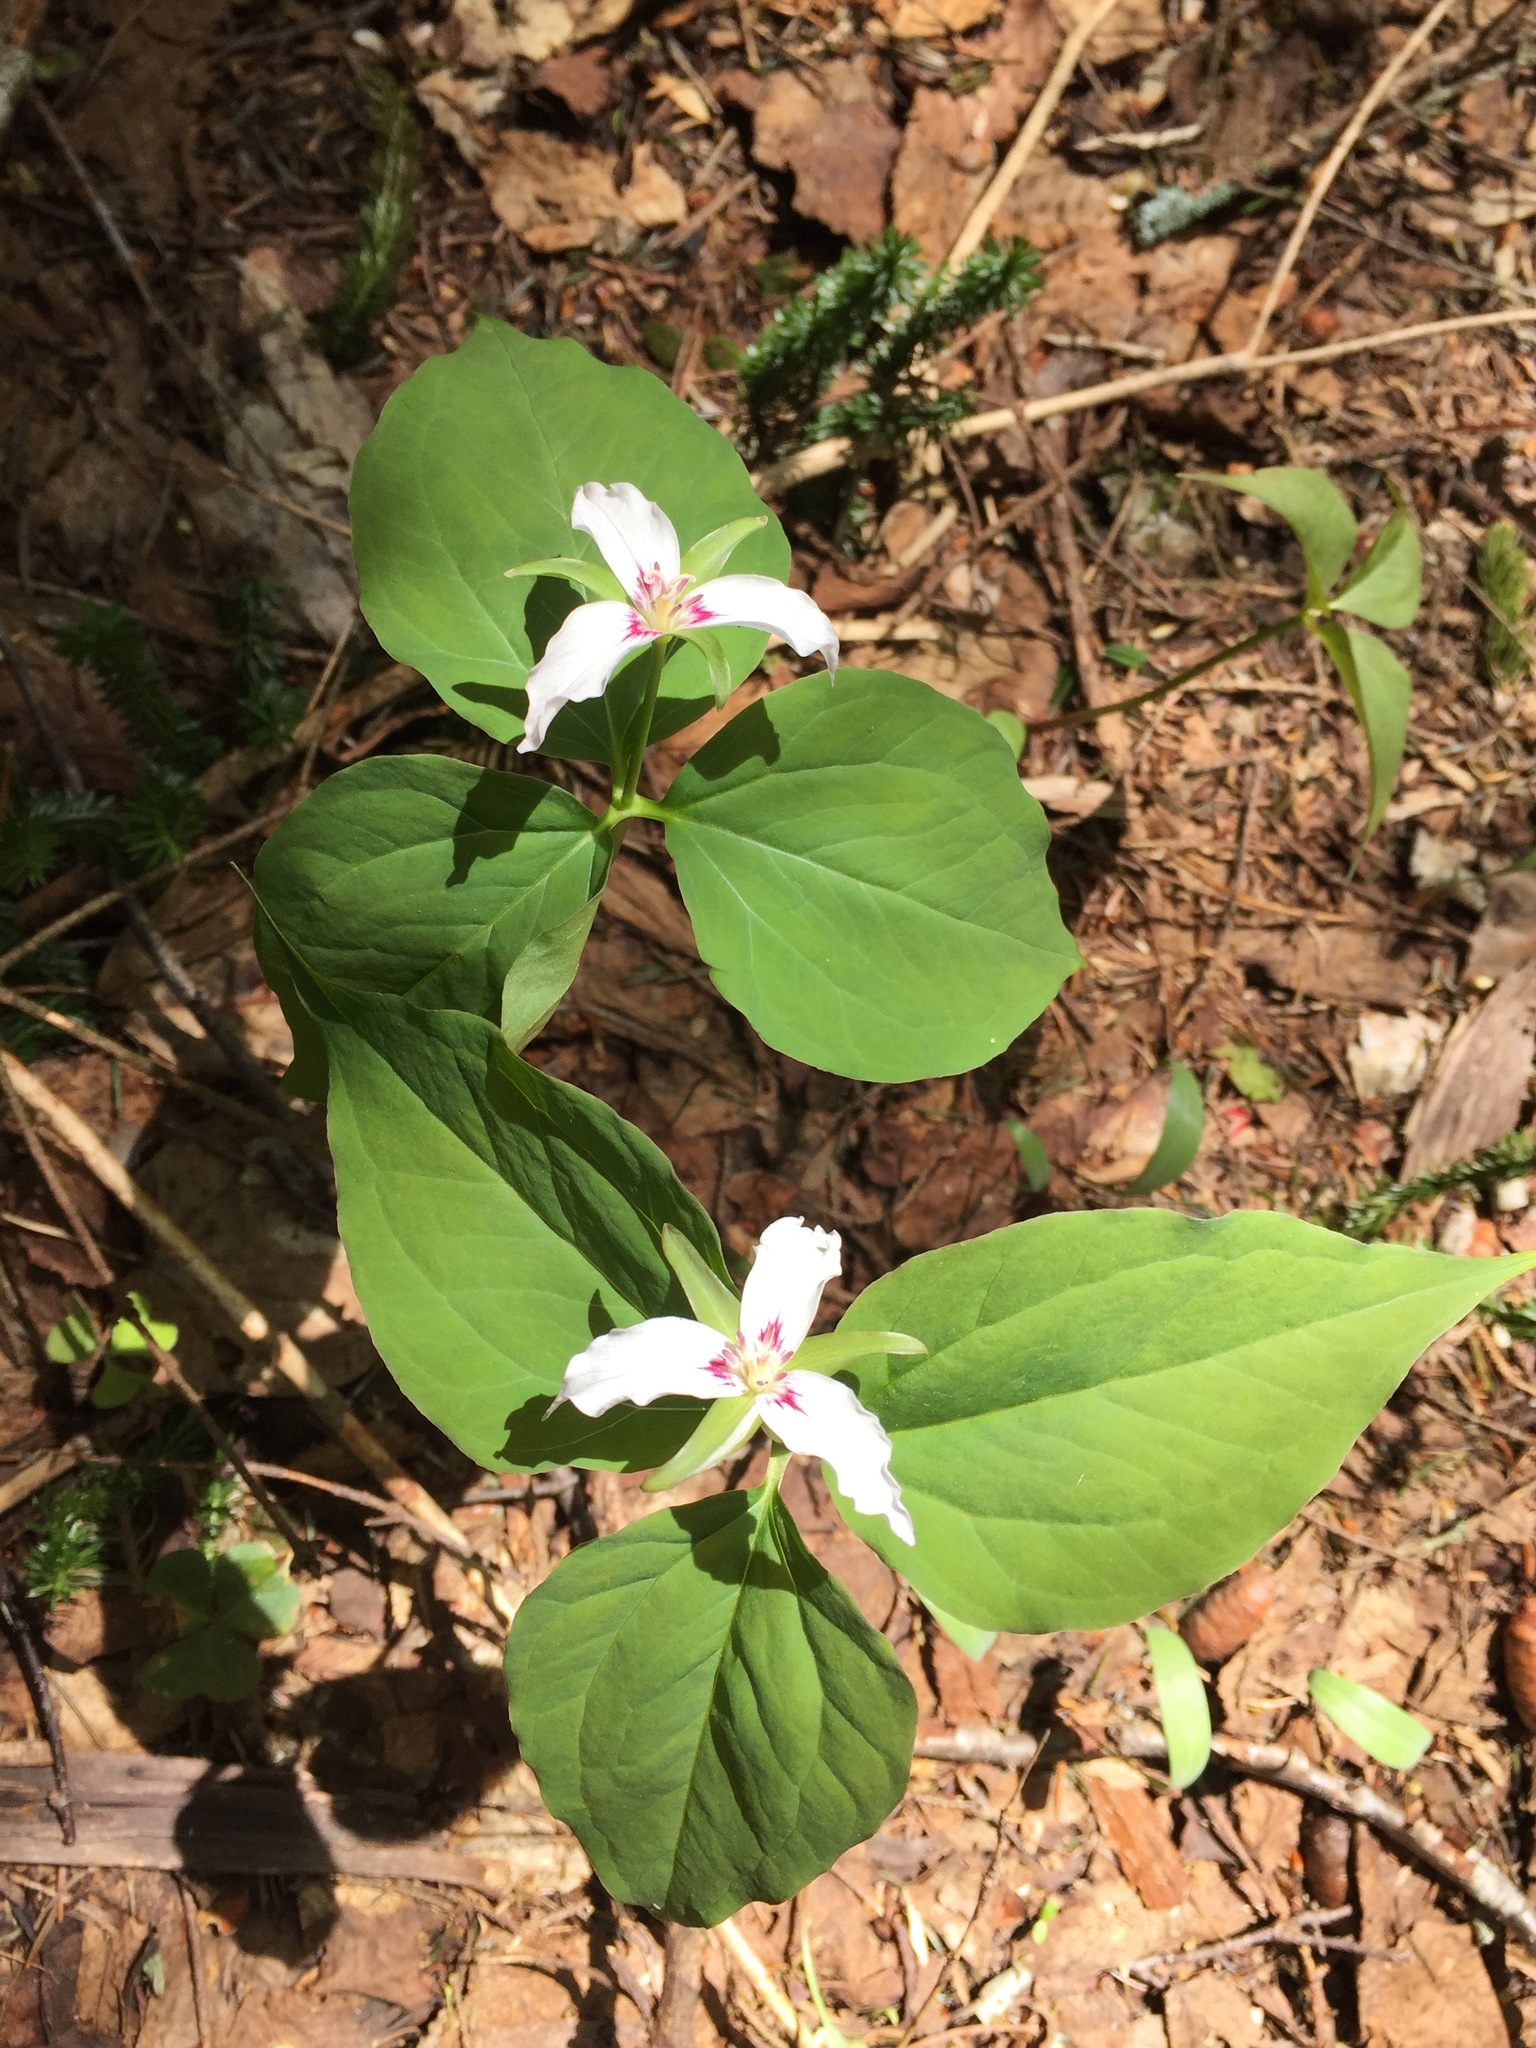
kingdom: Plantae
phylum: Tracheophyta
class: Liliopsida
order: Liliales
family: Melanthiaceae
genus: Trillium
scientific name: Trillium undulatum
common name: Paint trillium
